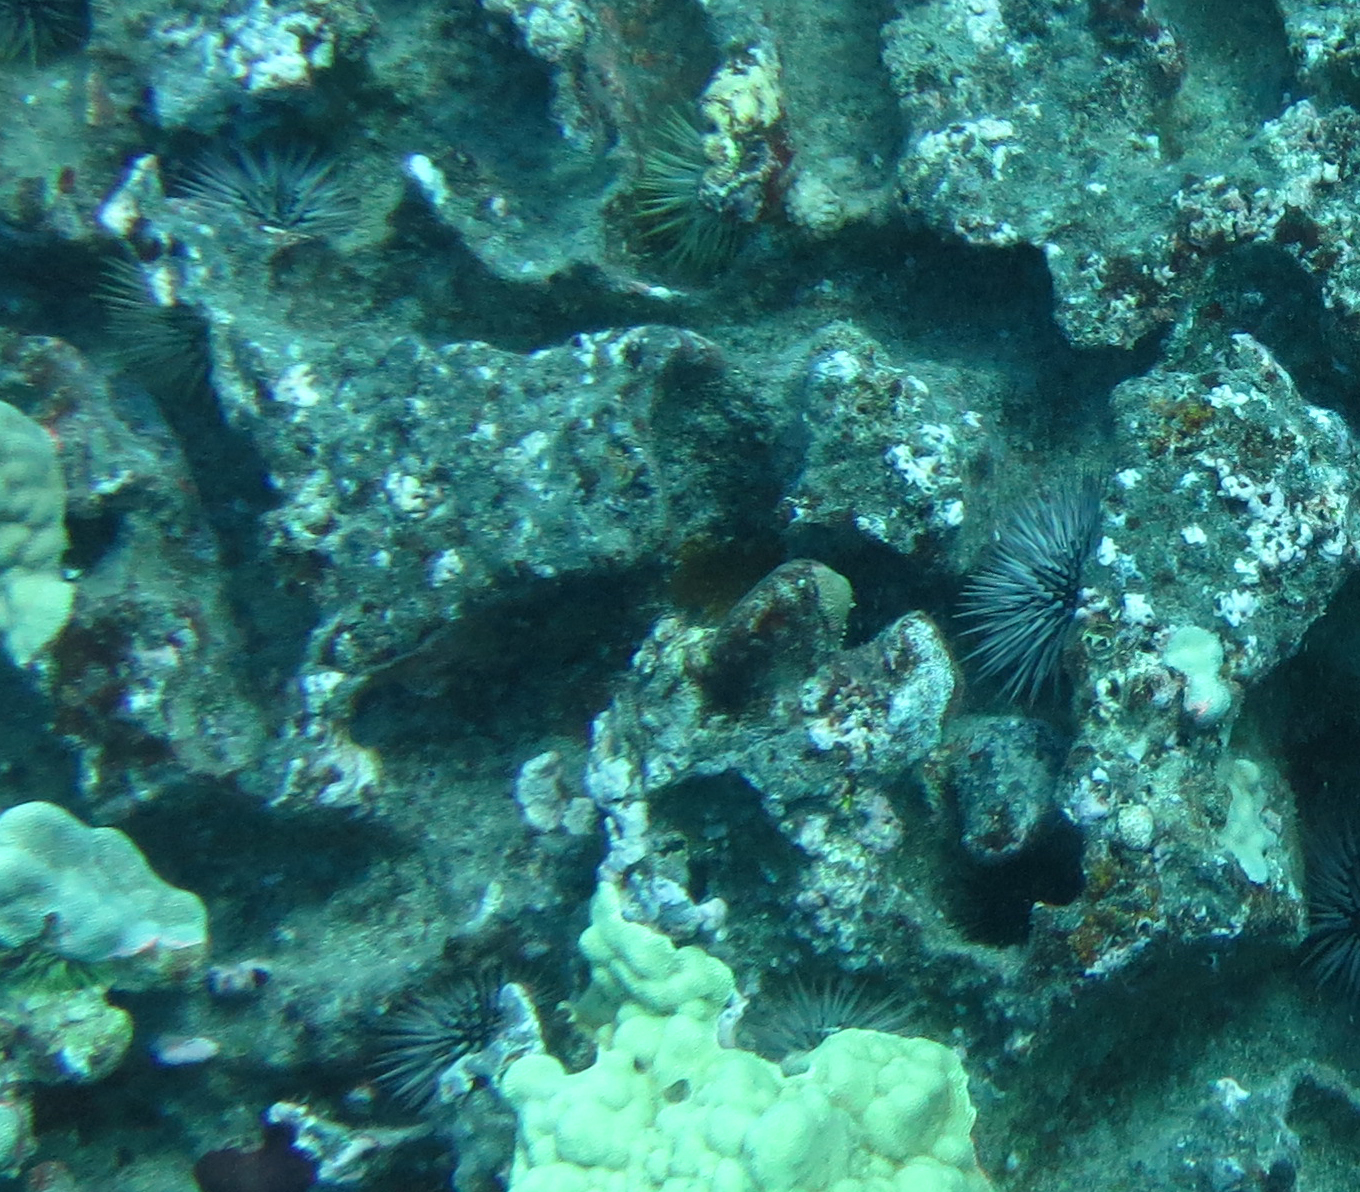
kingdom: Animalia
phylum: Echinodermata
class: Echinoidea
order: Camarodonta
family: Echinometridae
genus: Echinometra
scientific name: Echinometra mathaei
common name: Rock-boring urchin
